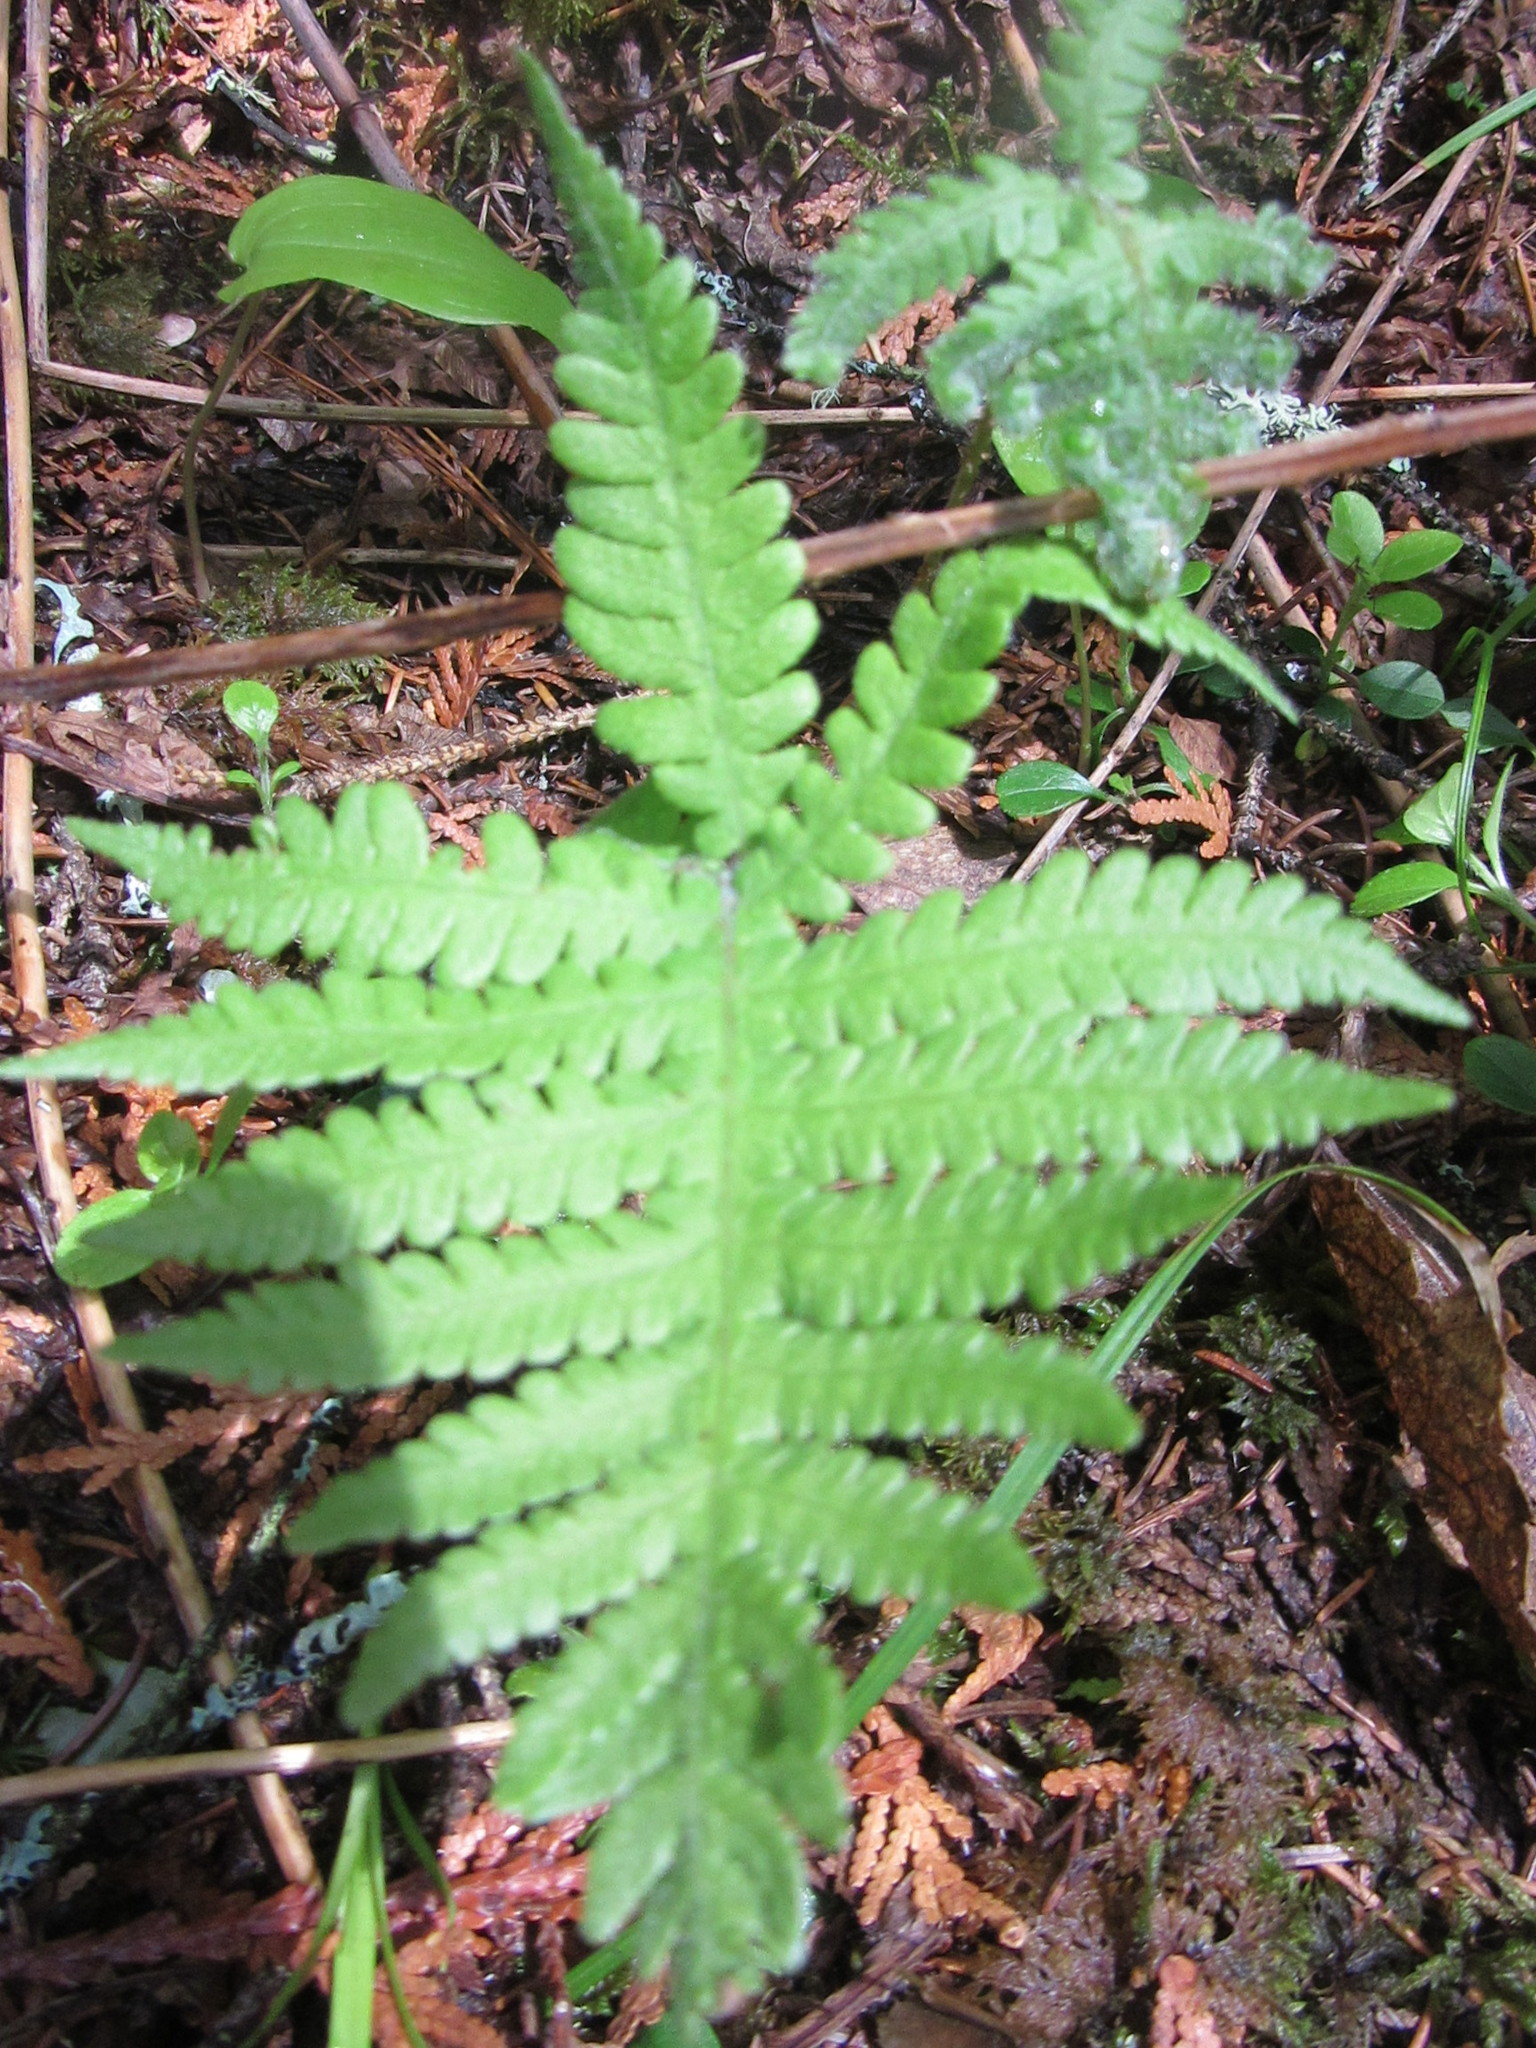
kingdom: Plantae
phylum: Tracheophyta
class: Polypodiopsida
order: Polypodiales
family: Thelypteridaceae
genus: Phegopteris
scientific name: Phegopteris connectilis
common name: Beech fern
